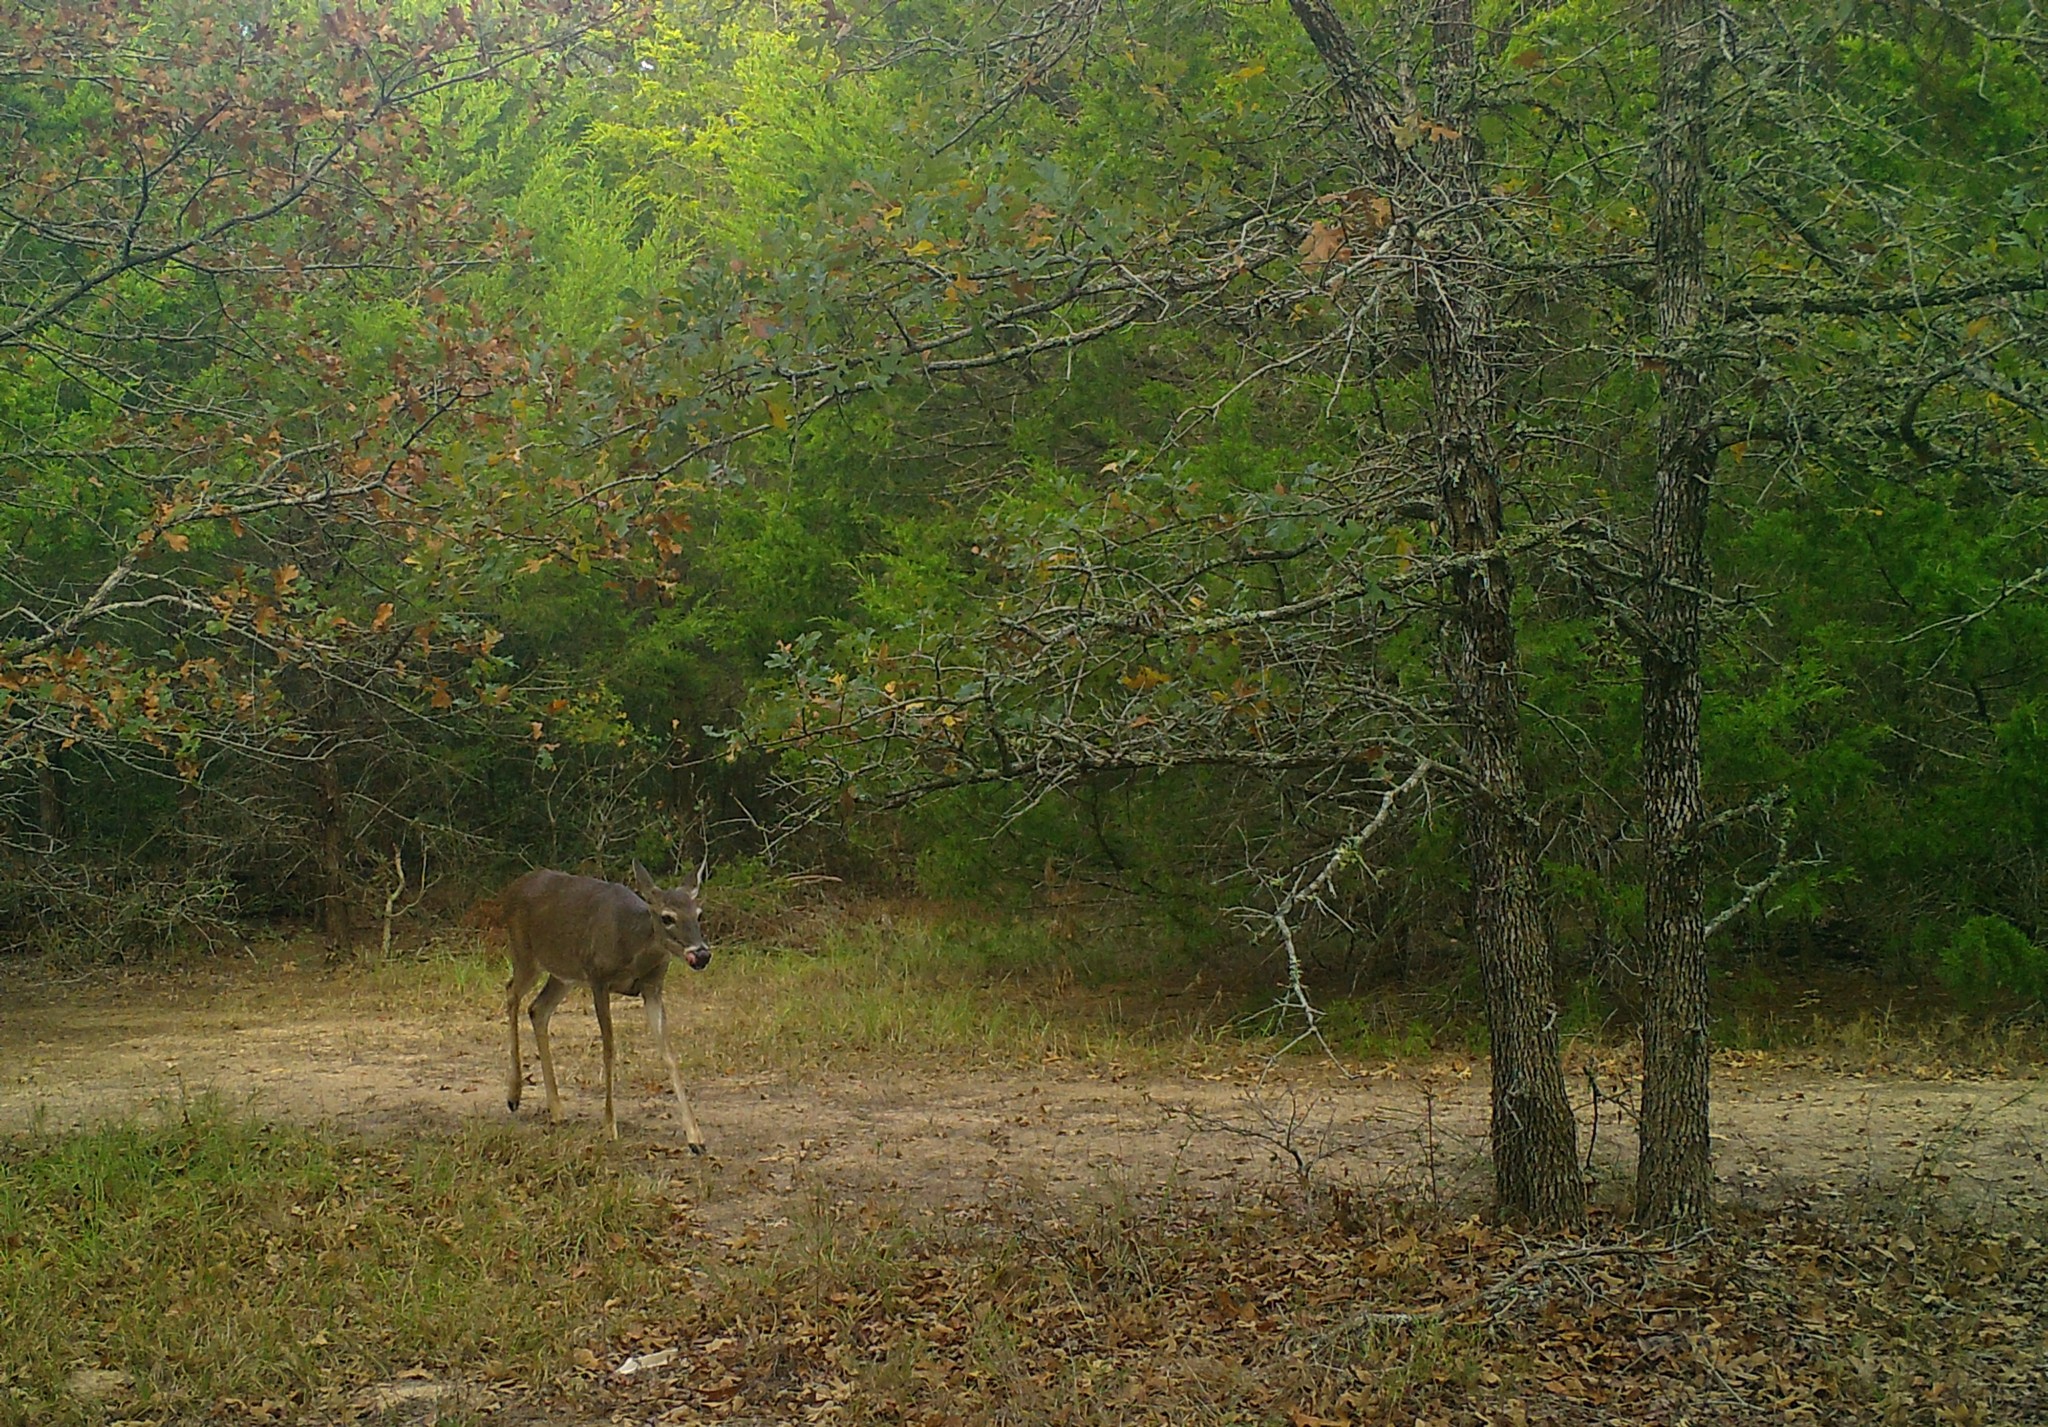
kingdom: Animalia
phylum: Chordata
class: Mammalia
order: Artiodactyla
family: Cervidae
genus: Odocoileus
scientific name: Odocoileus virginianus
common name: White-tailed deer
